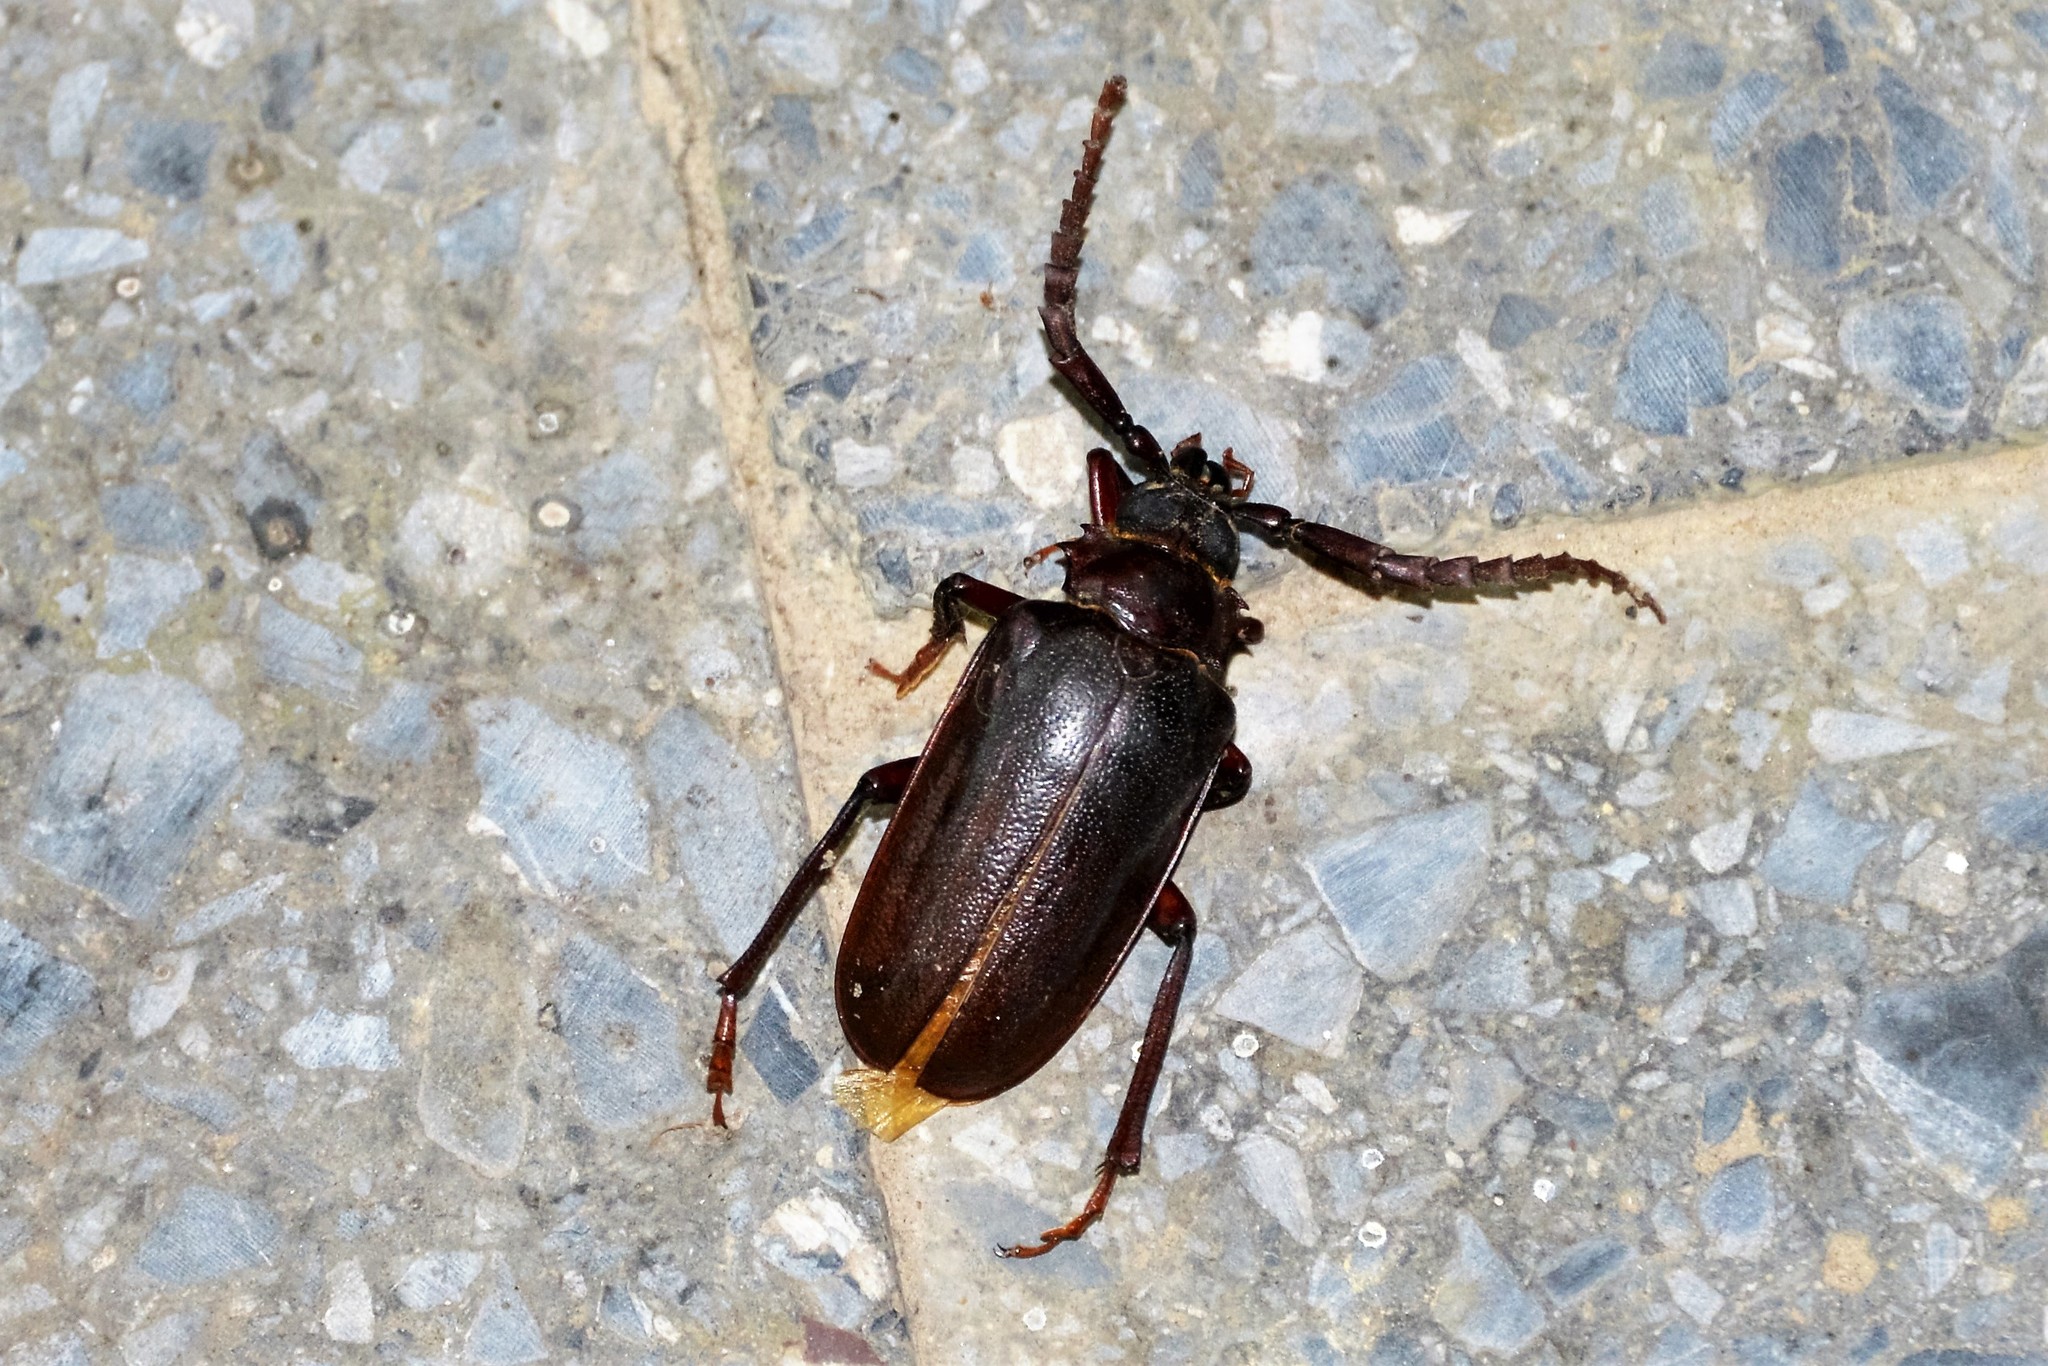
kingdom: Animalia
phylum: Arthropoda
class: Insecta
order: Coleoptera
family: Cerambycidae
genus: Prionus
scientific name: Prionus pocularis
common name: Tooth-necked longhorn beetle
